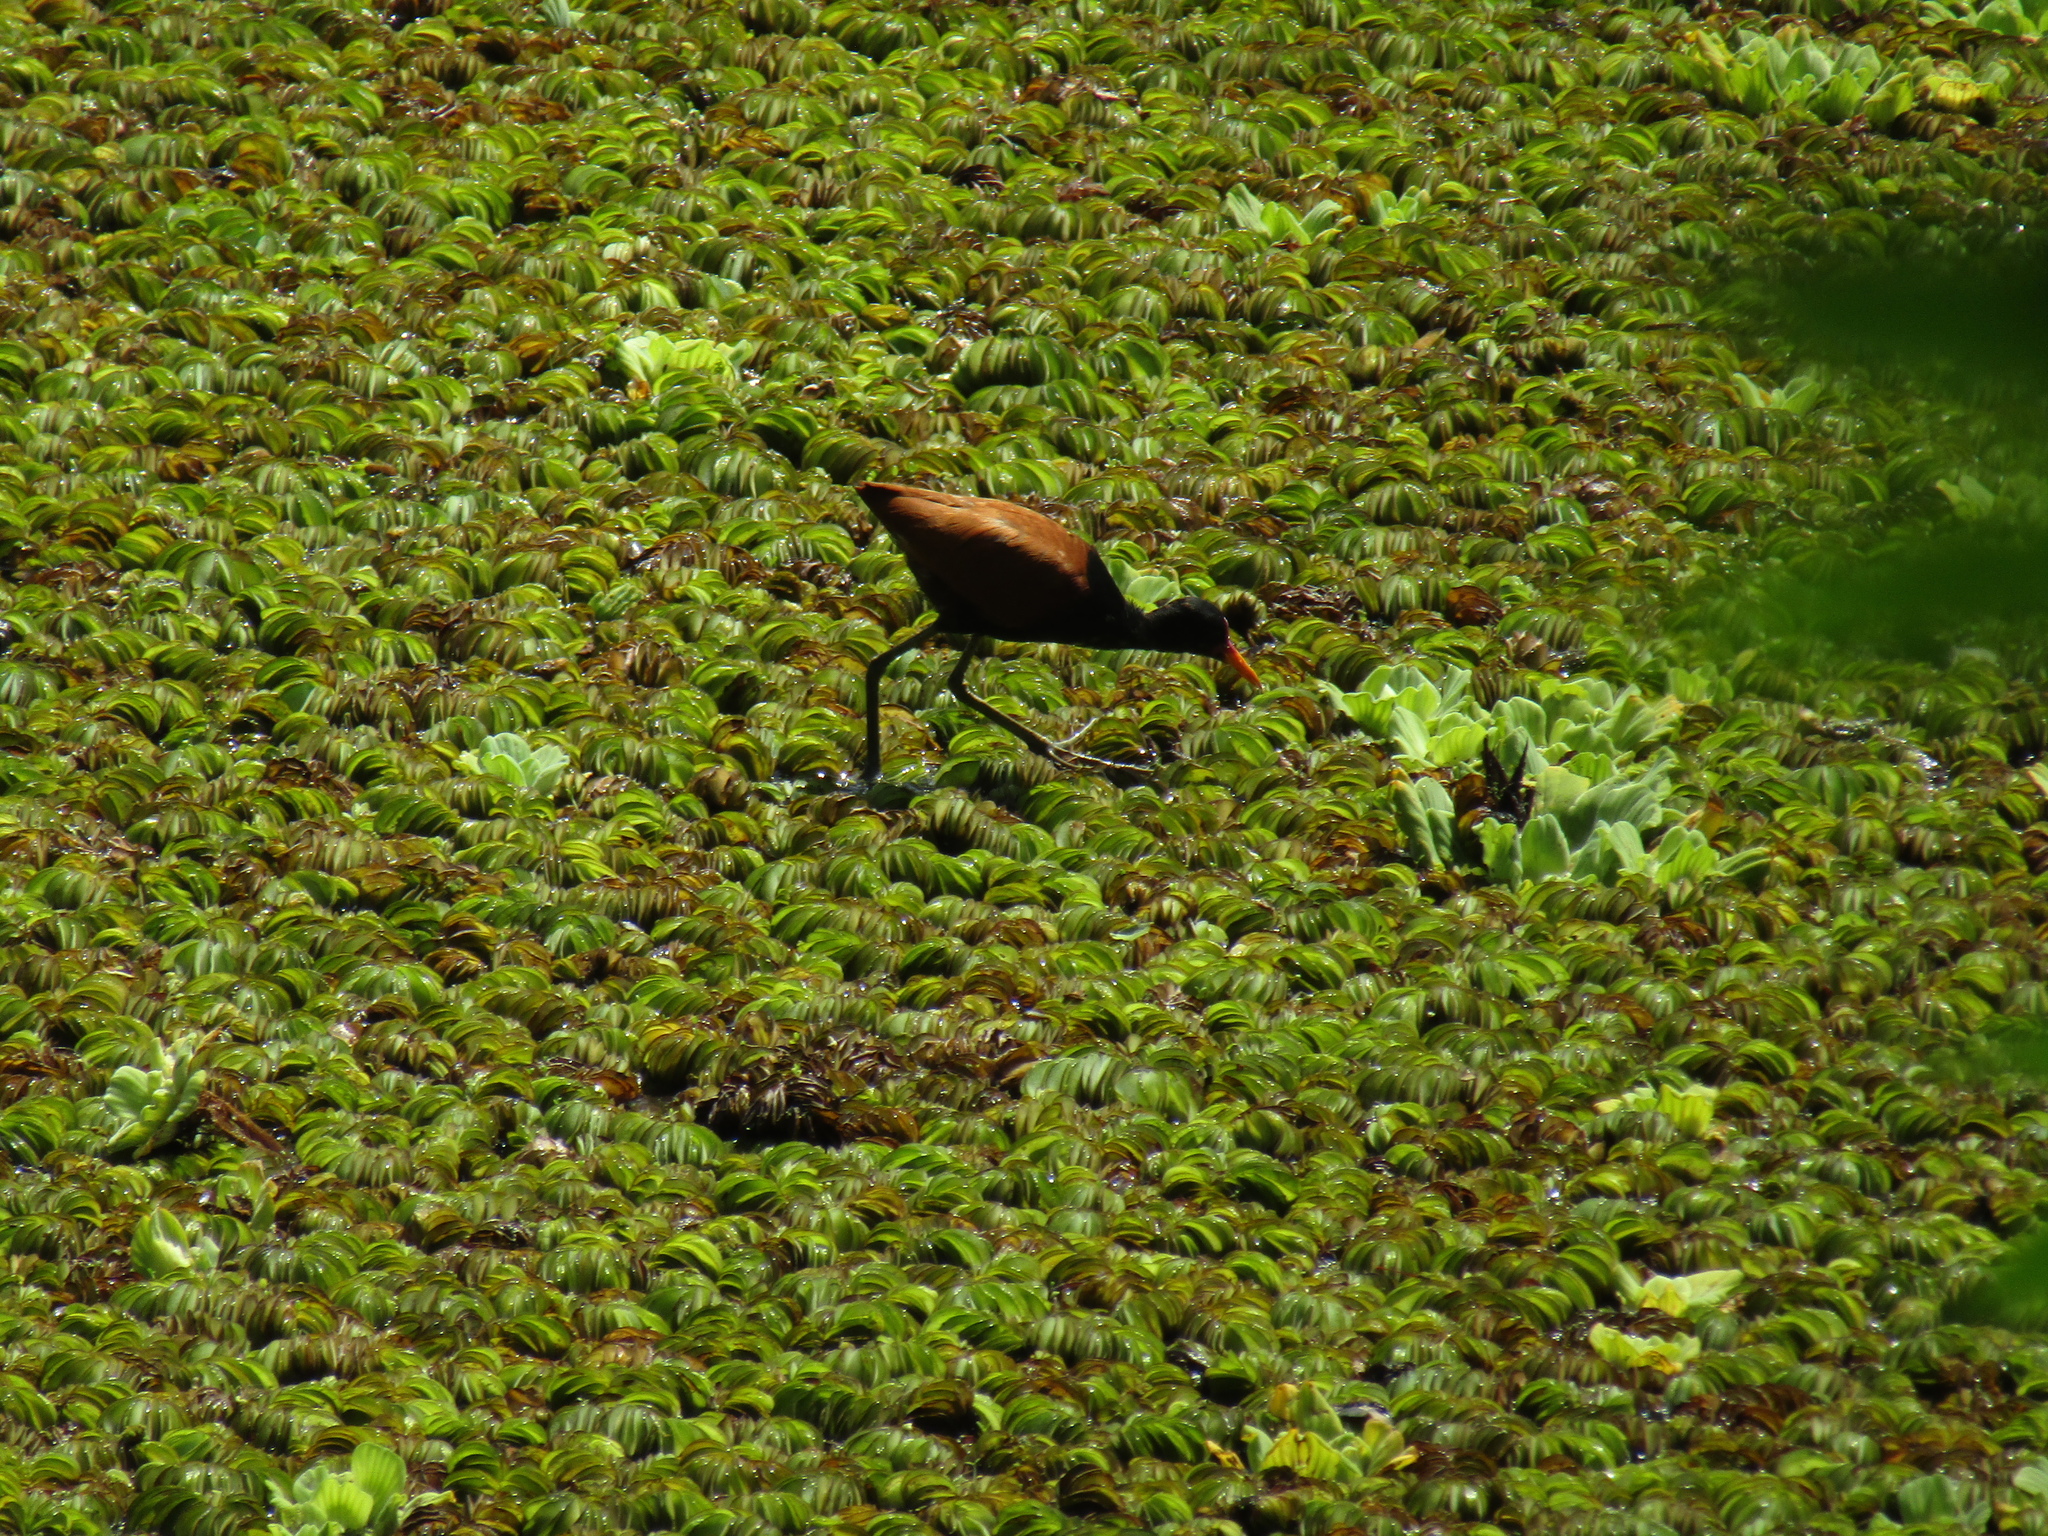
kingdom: Animalia
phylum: Chordata
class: Aves
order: Charadriiformes
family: Jacanidae
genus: Jacana
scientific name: Jacana jacana
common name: Wattled jacana
